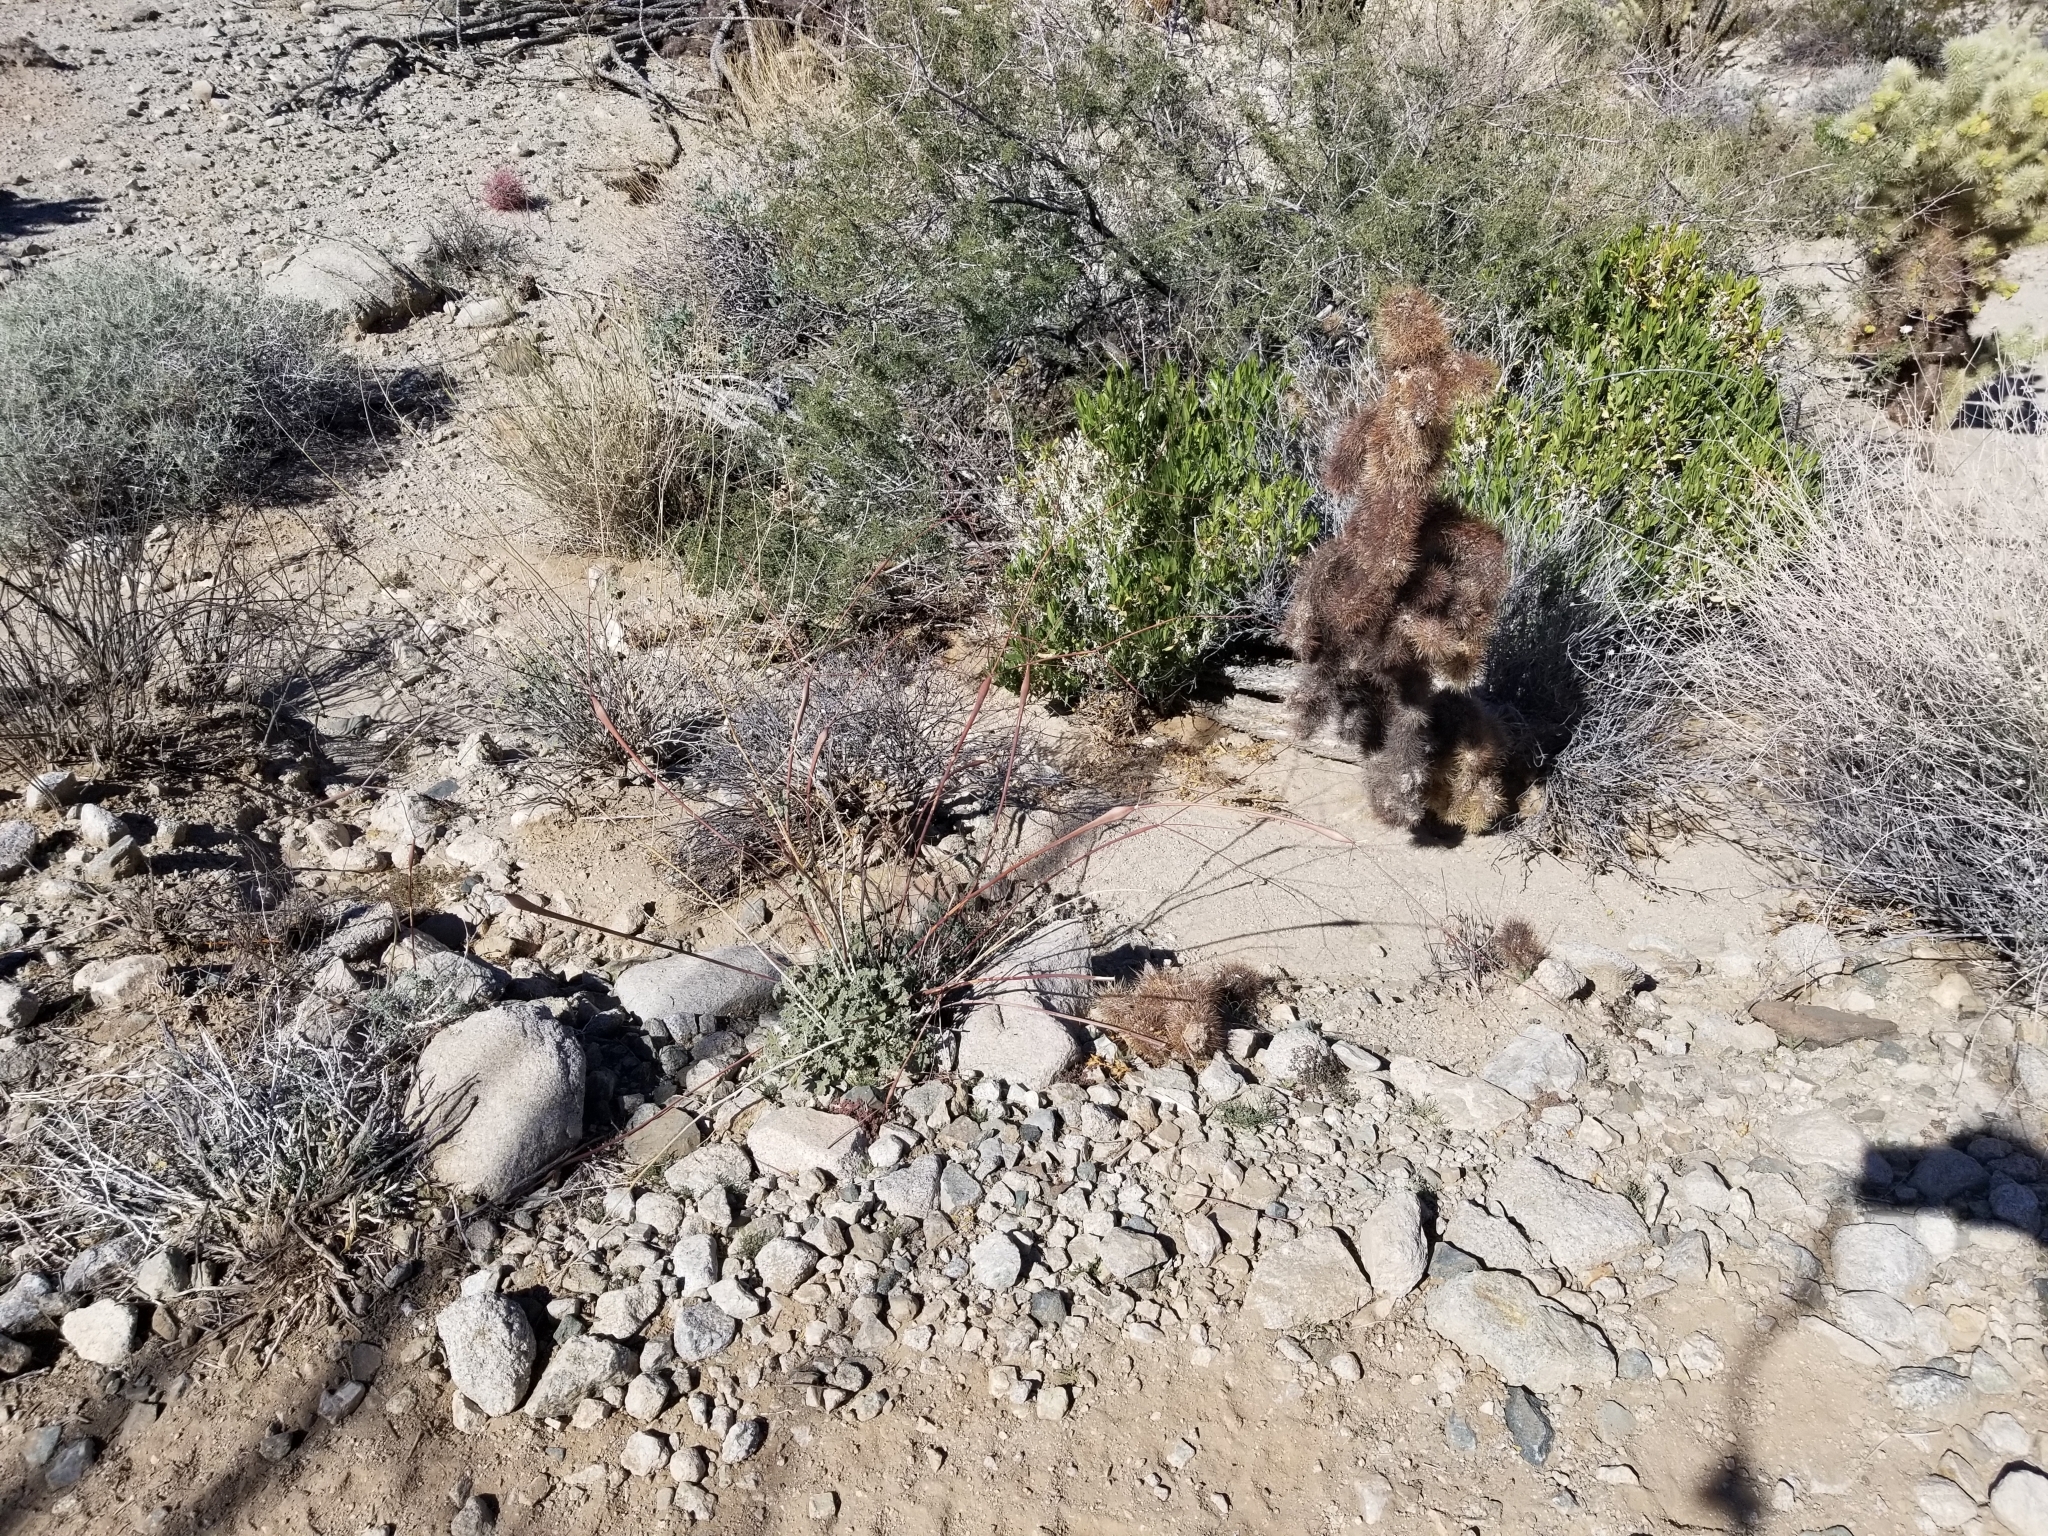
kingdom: Plantae
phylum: Tracheophyta
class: Magnoliopsida
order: Caryophyllales
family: Polygonaceae
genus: Eriogonum
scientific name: Eriogonum inflatum
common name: Desert trumpet
